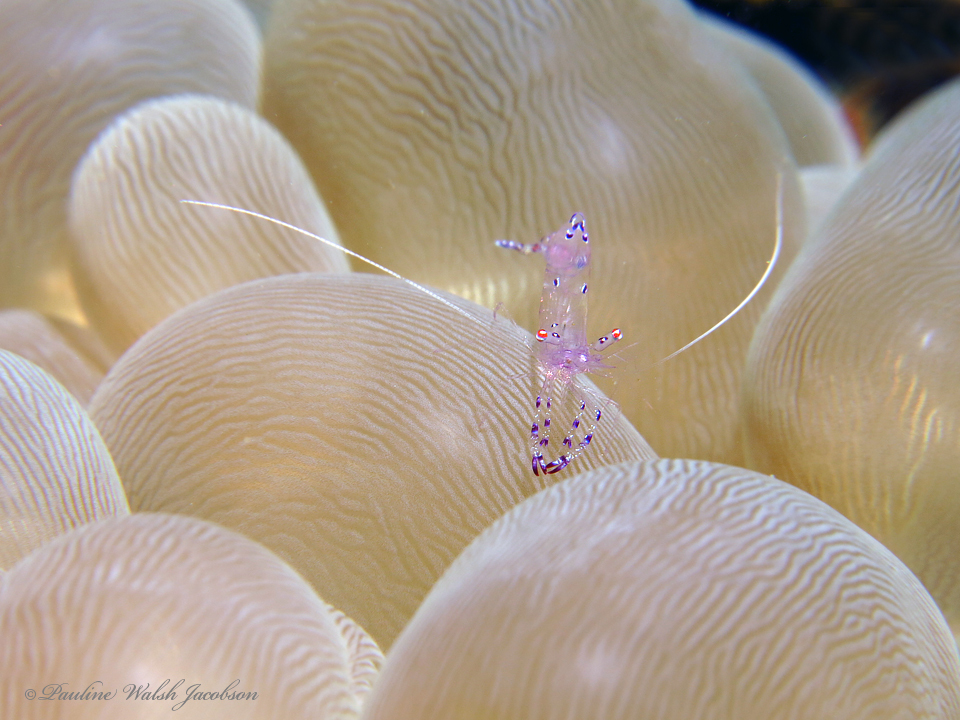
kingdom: Animalia
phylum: Arthropoda
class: Malacostraca
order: Decapoda
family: Palaemonidae
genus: Ancylomenes
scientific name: Ancylomenes sarasvati
